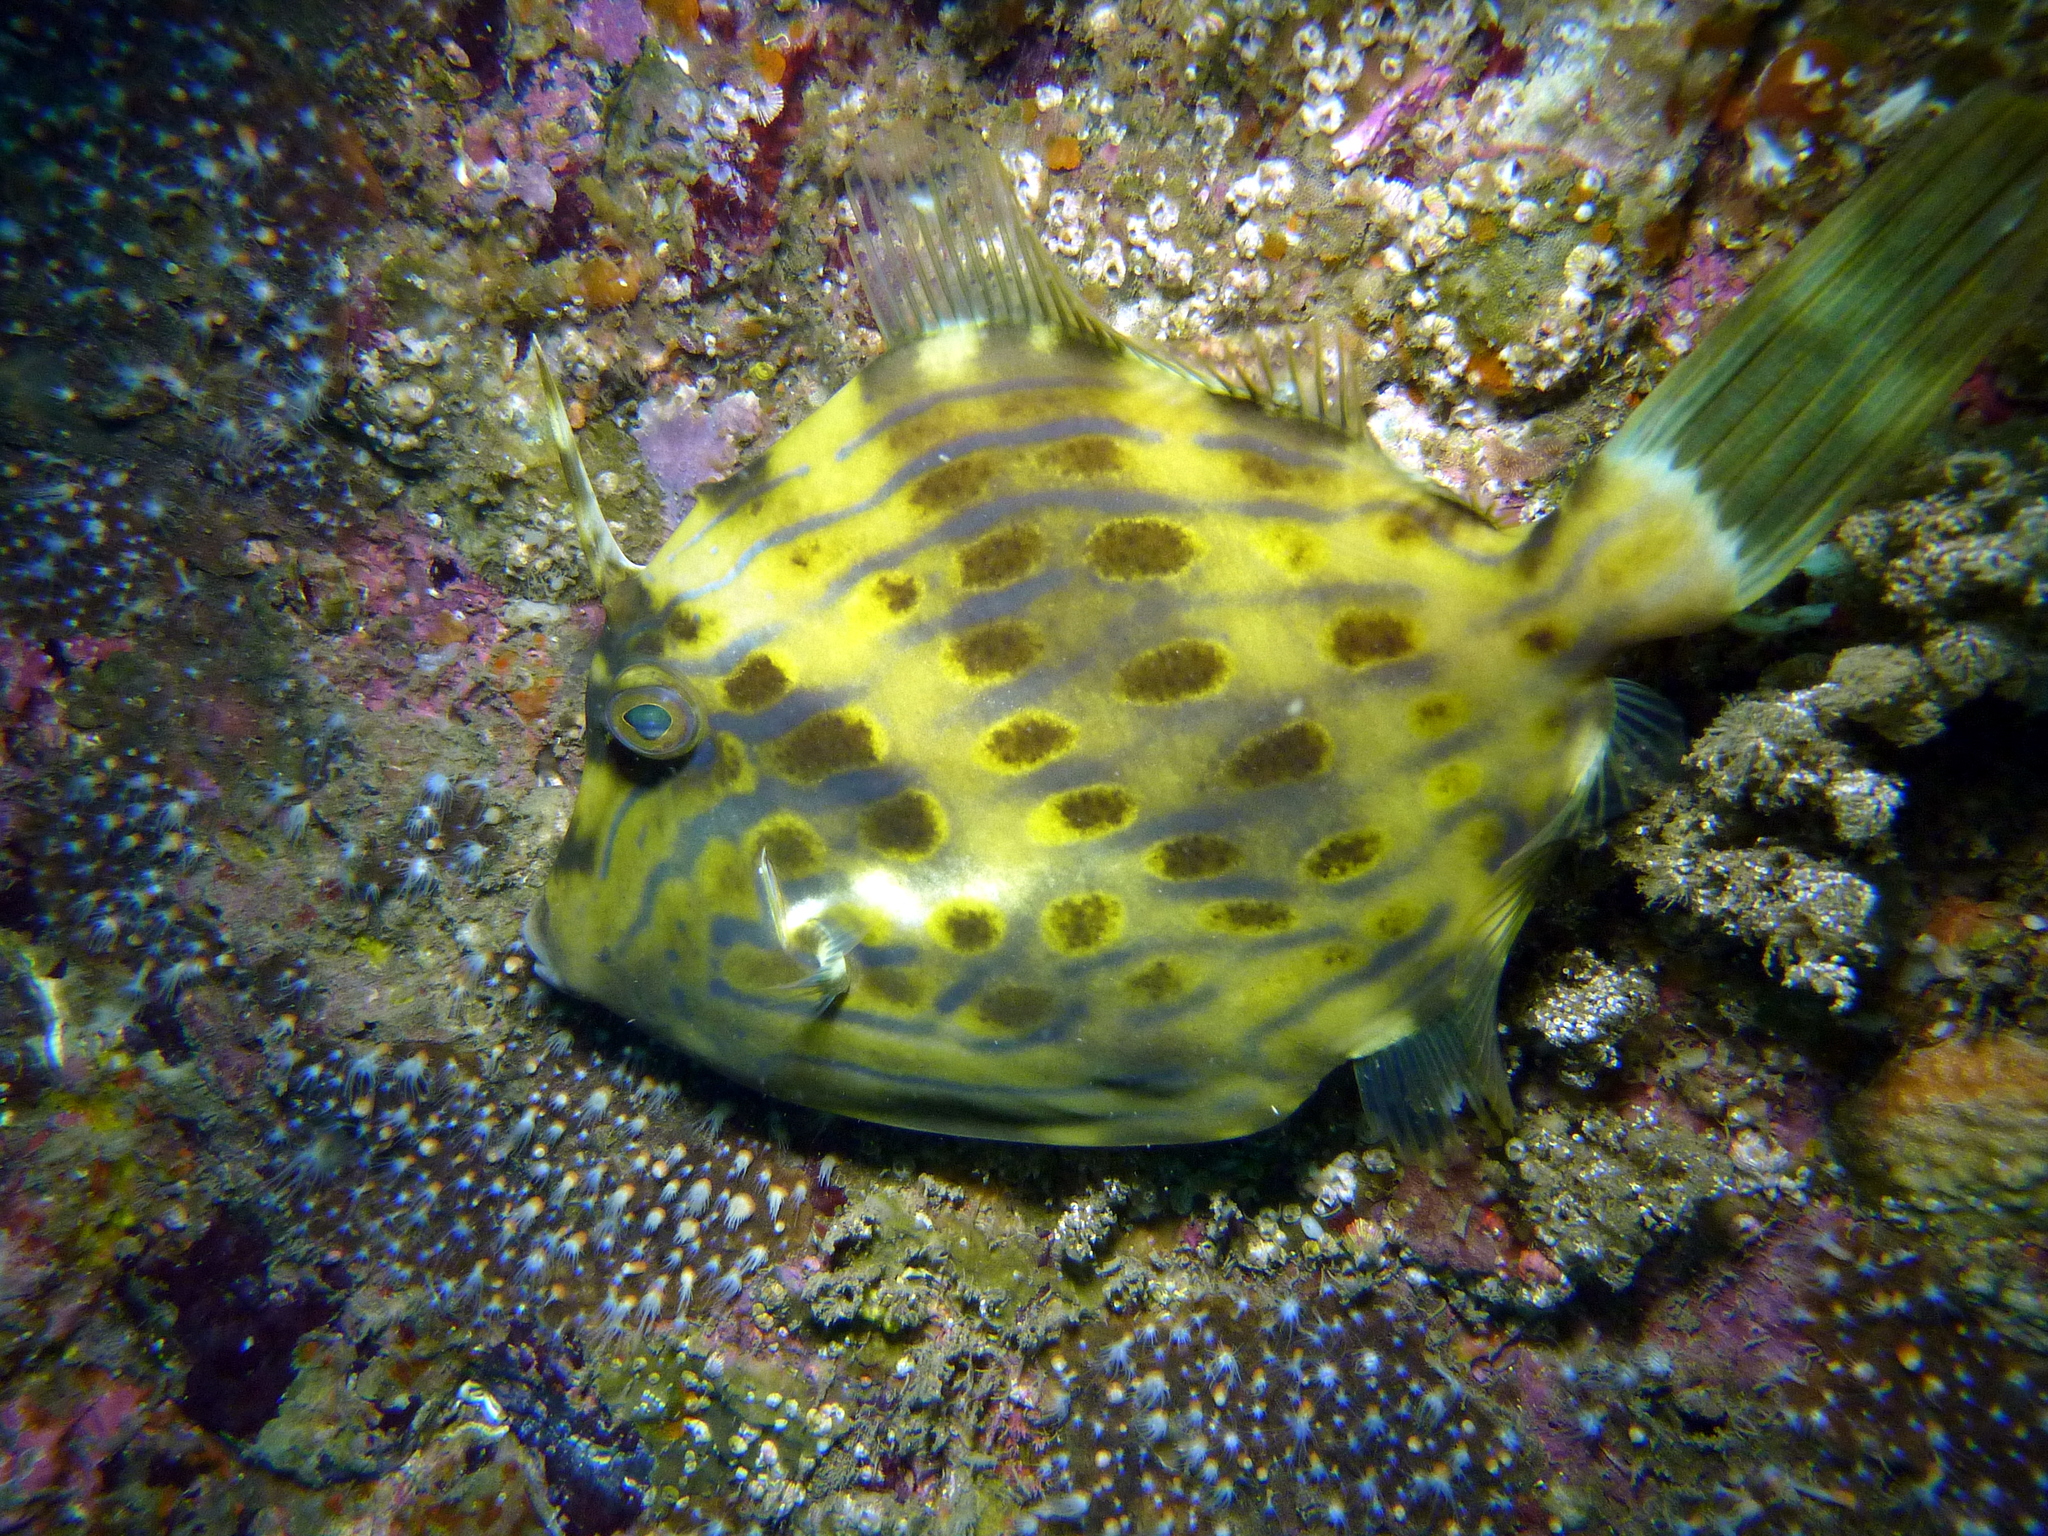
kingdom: Animalia
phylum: Chordata
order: Tetraodontiformes
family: Monacanthidae
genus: Eubalichthys
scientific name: Eubalichthys mosaicus
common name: Mosaic leatherjacket
